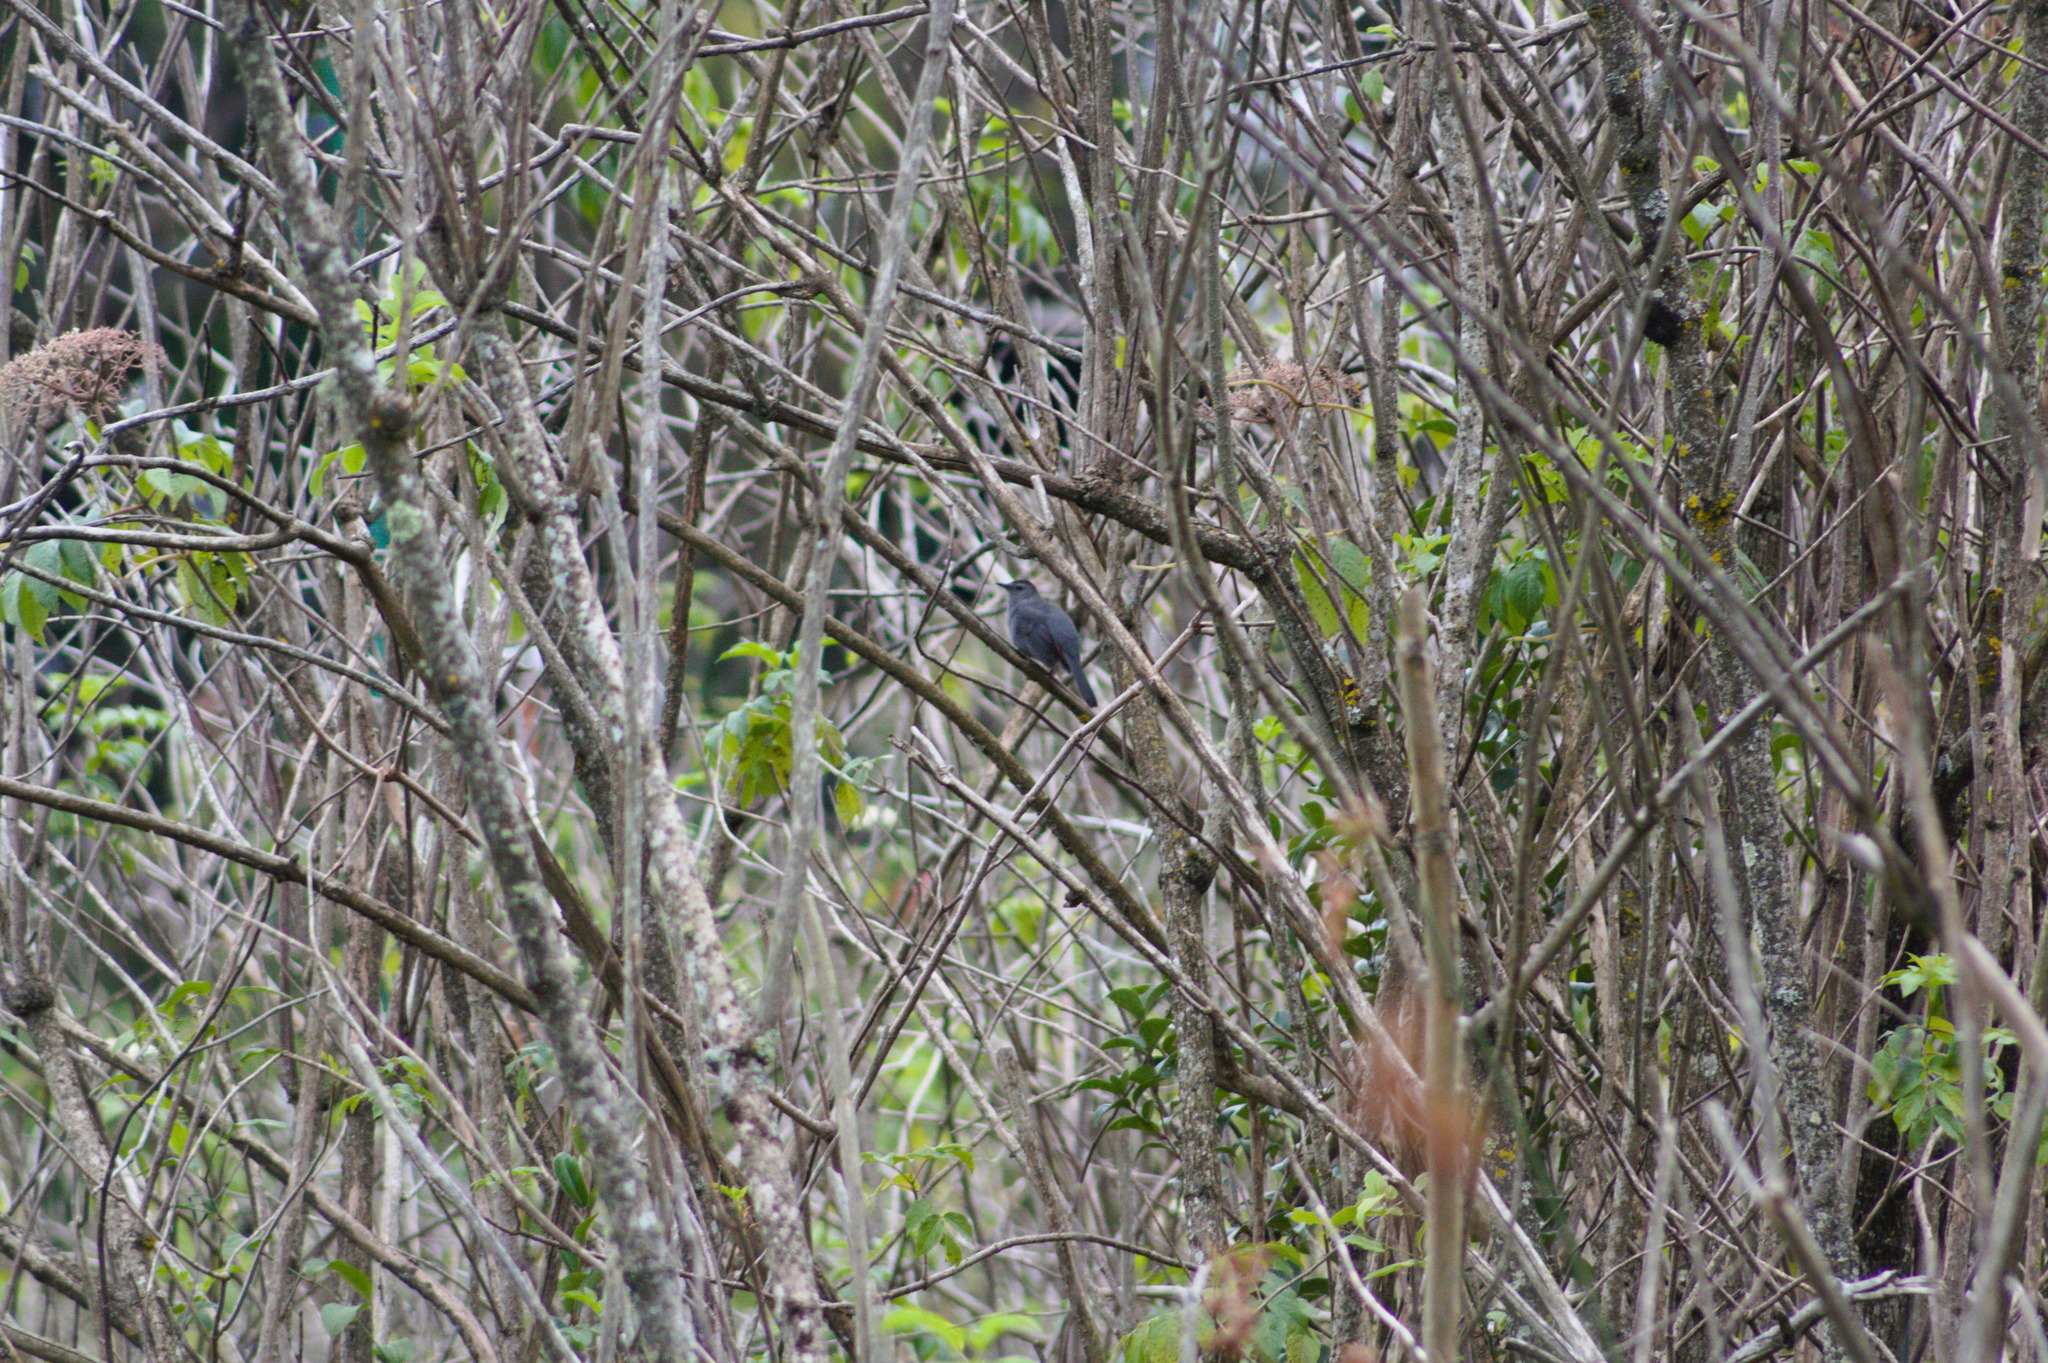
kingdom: Animalia
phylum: Chordata
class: Aves
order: Passeriformes
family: Mimidae
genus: Dumetella
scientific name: Dumetella carolinensis
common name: Gray catbird
